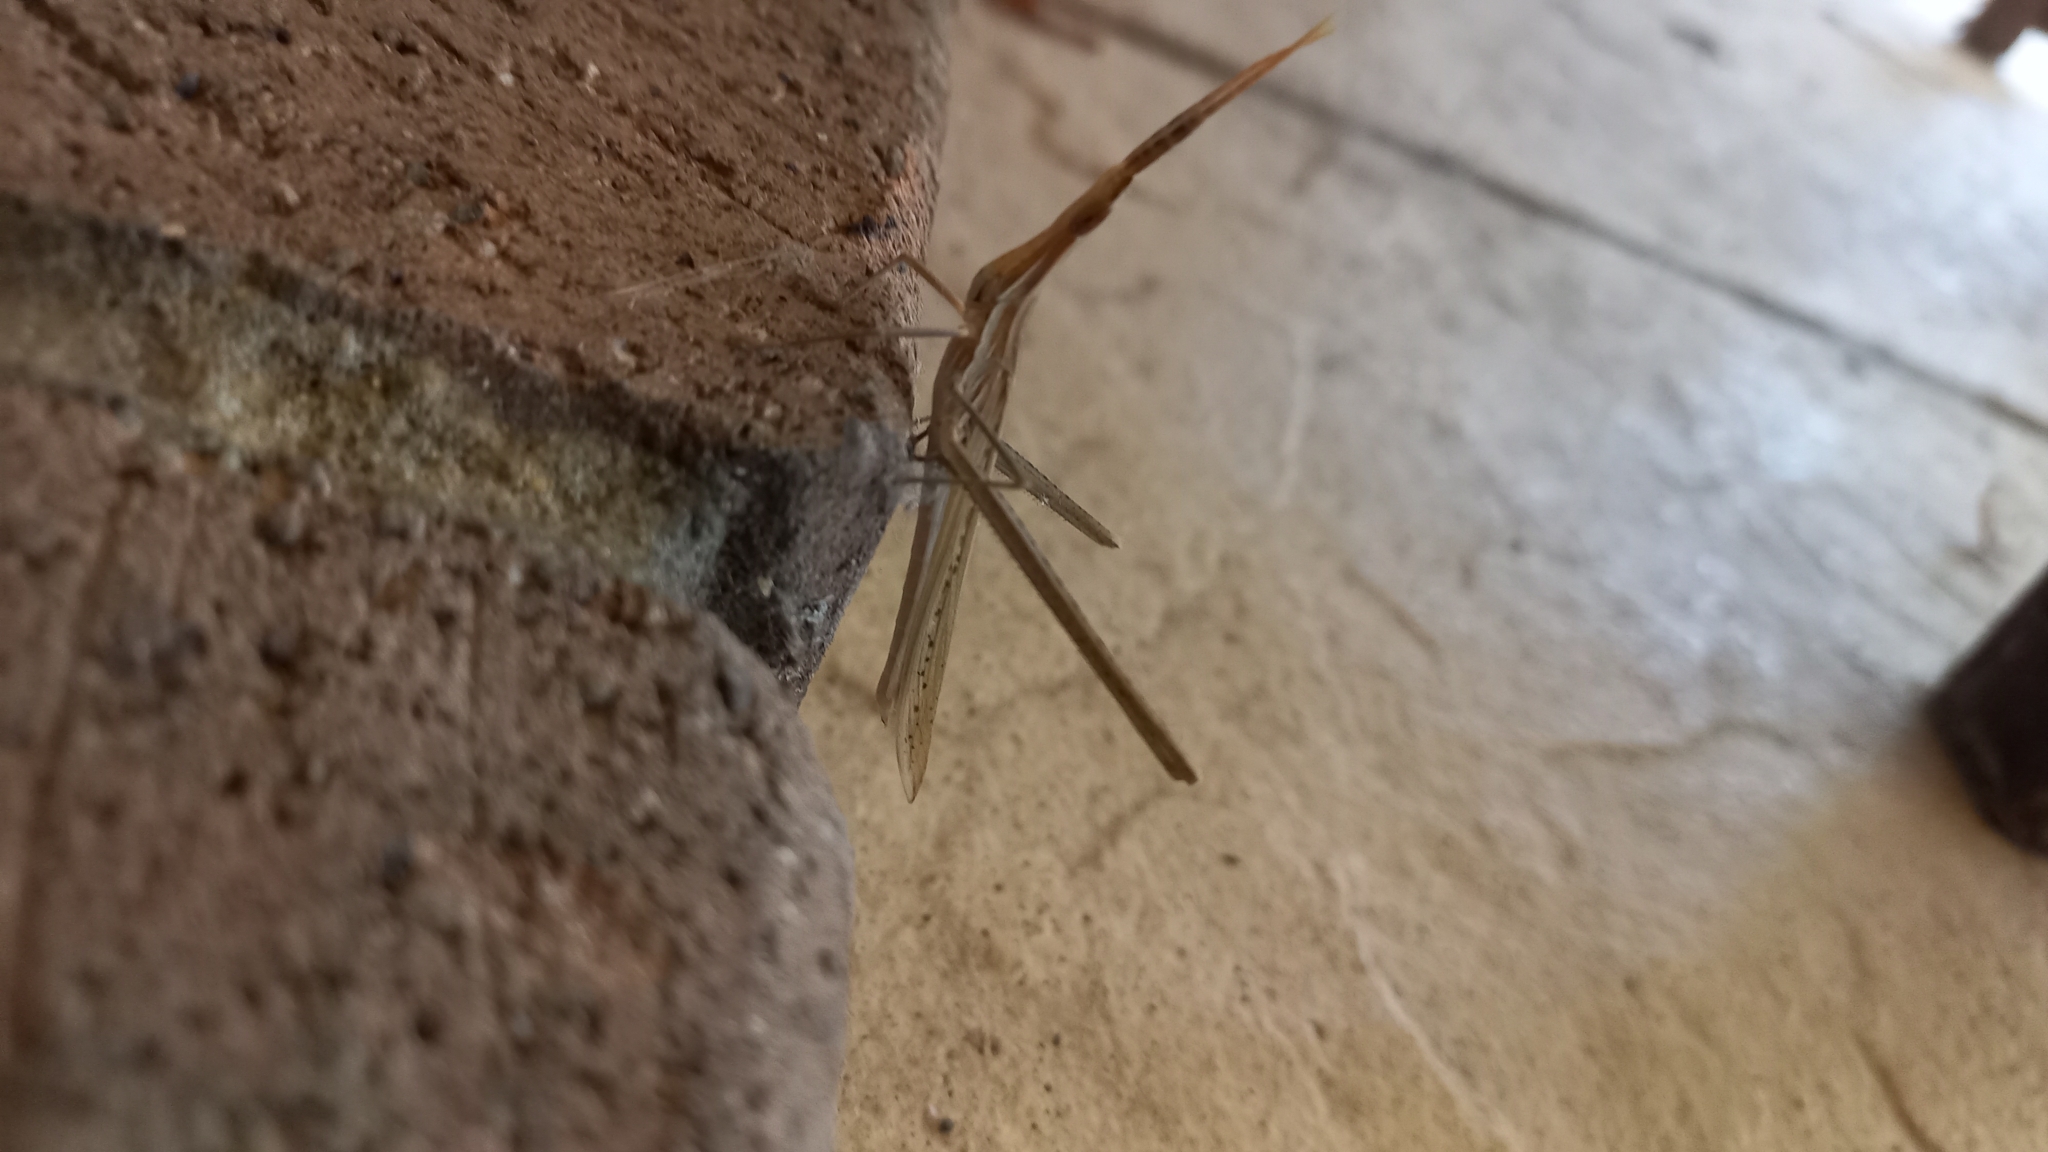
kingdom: Animalia
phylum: Arthropoda
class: Insecta
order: Orthoptera
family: Acrididae
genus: Acrida
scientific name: Acrida conica
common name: Giant green slantface
